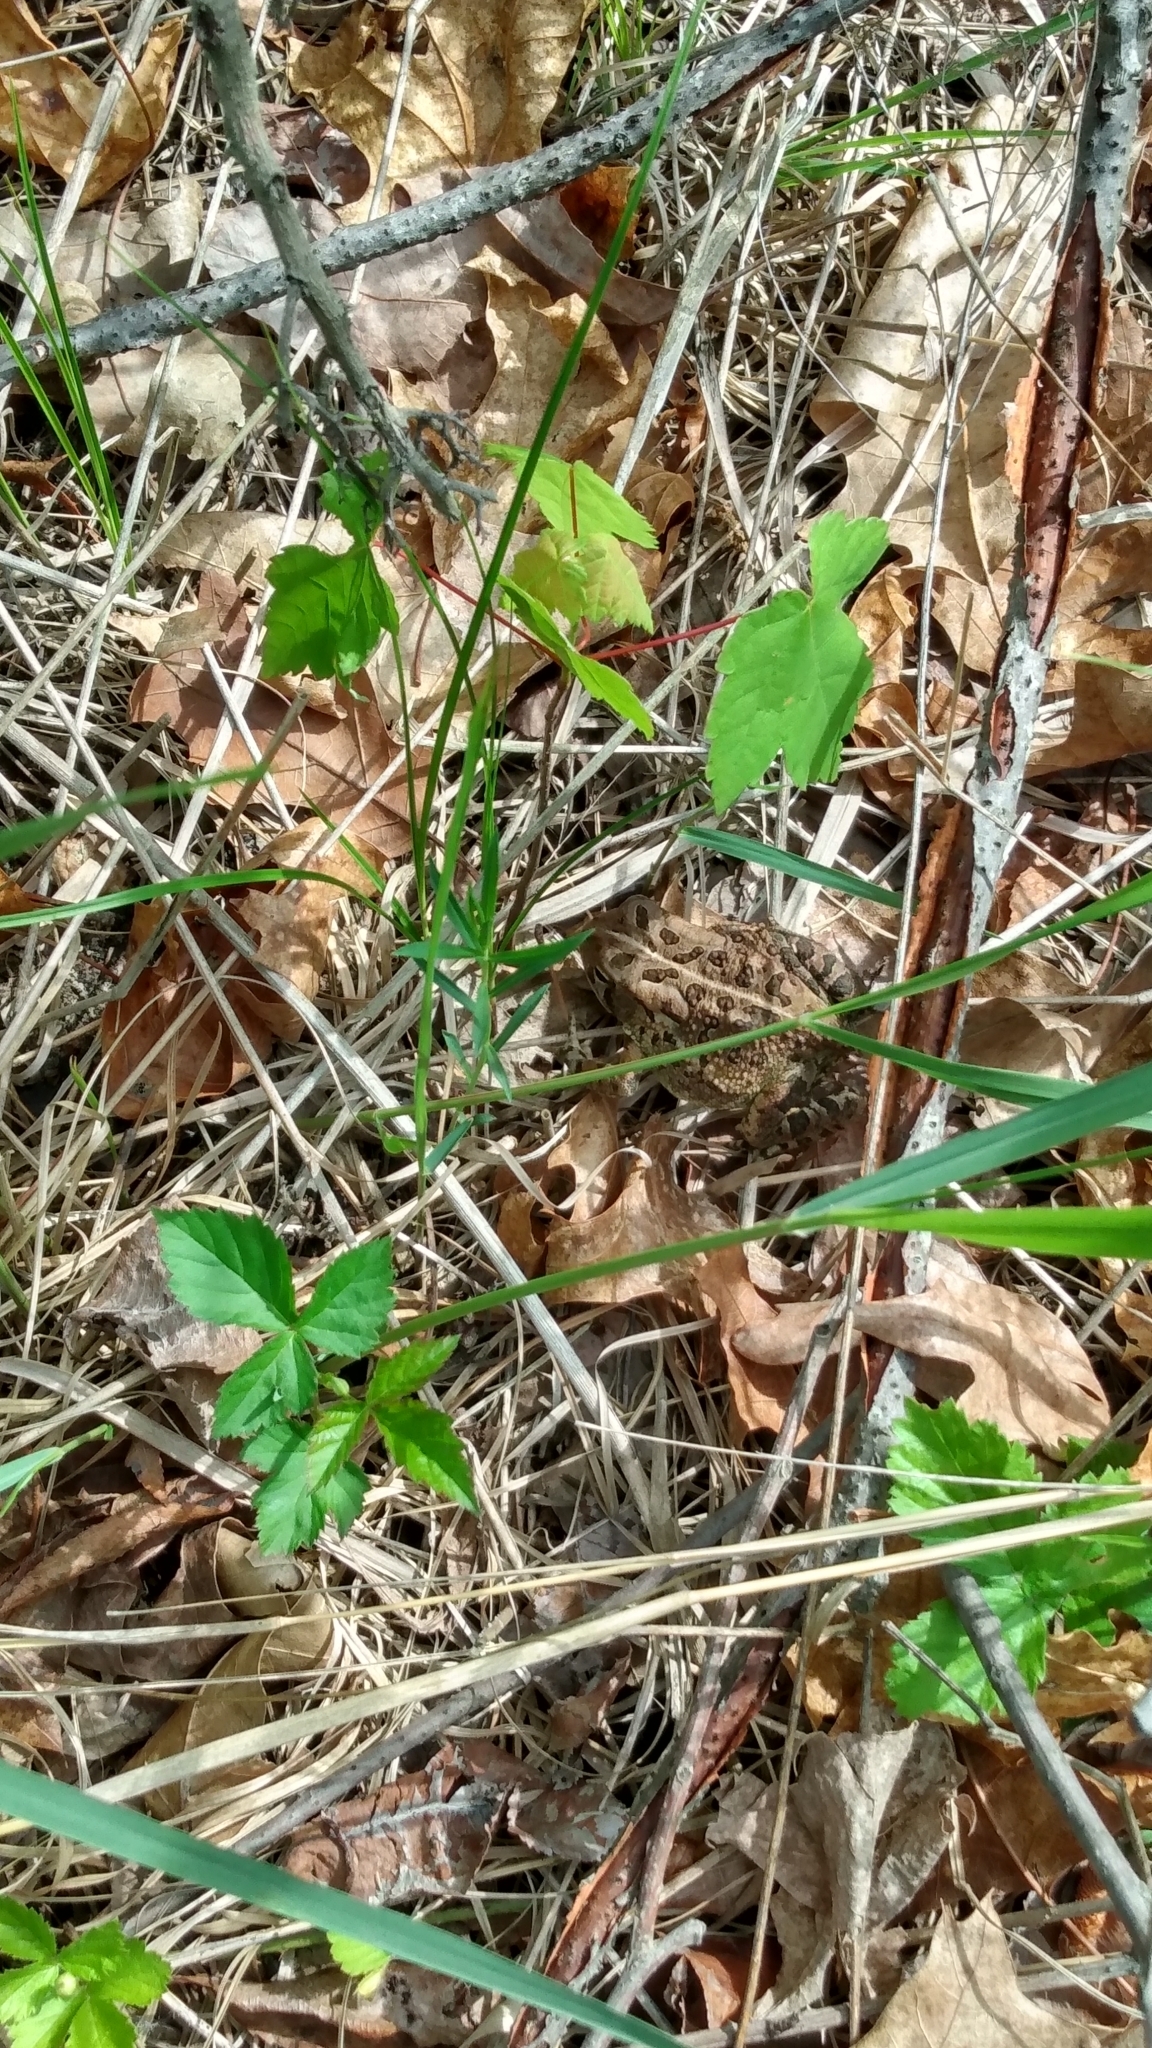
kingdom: Animalia
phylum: Chordata
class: Amphibia
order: Anura
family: Bufonidae
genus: Anaxyrus
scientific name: Anaxyrus fowleri
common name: Fowler's toad
